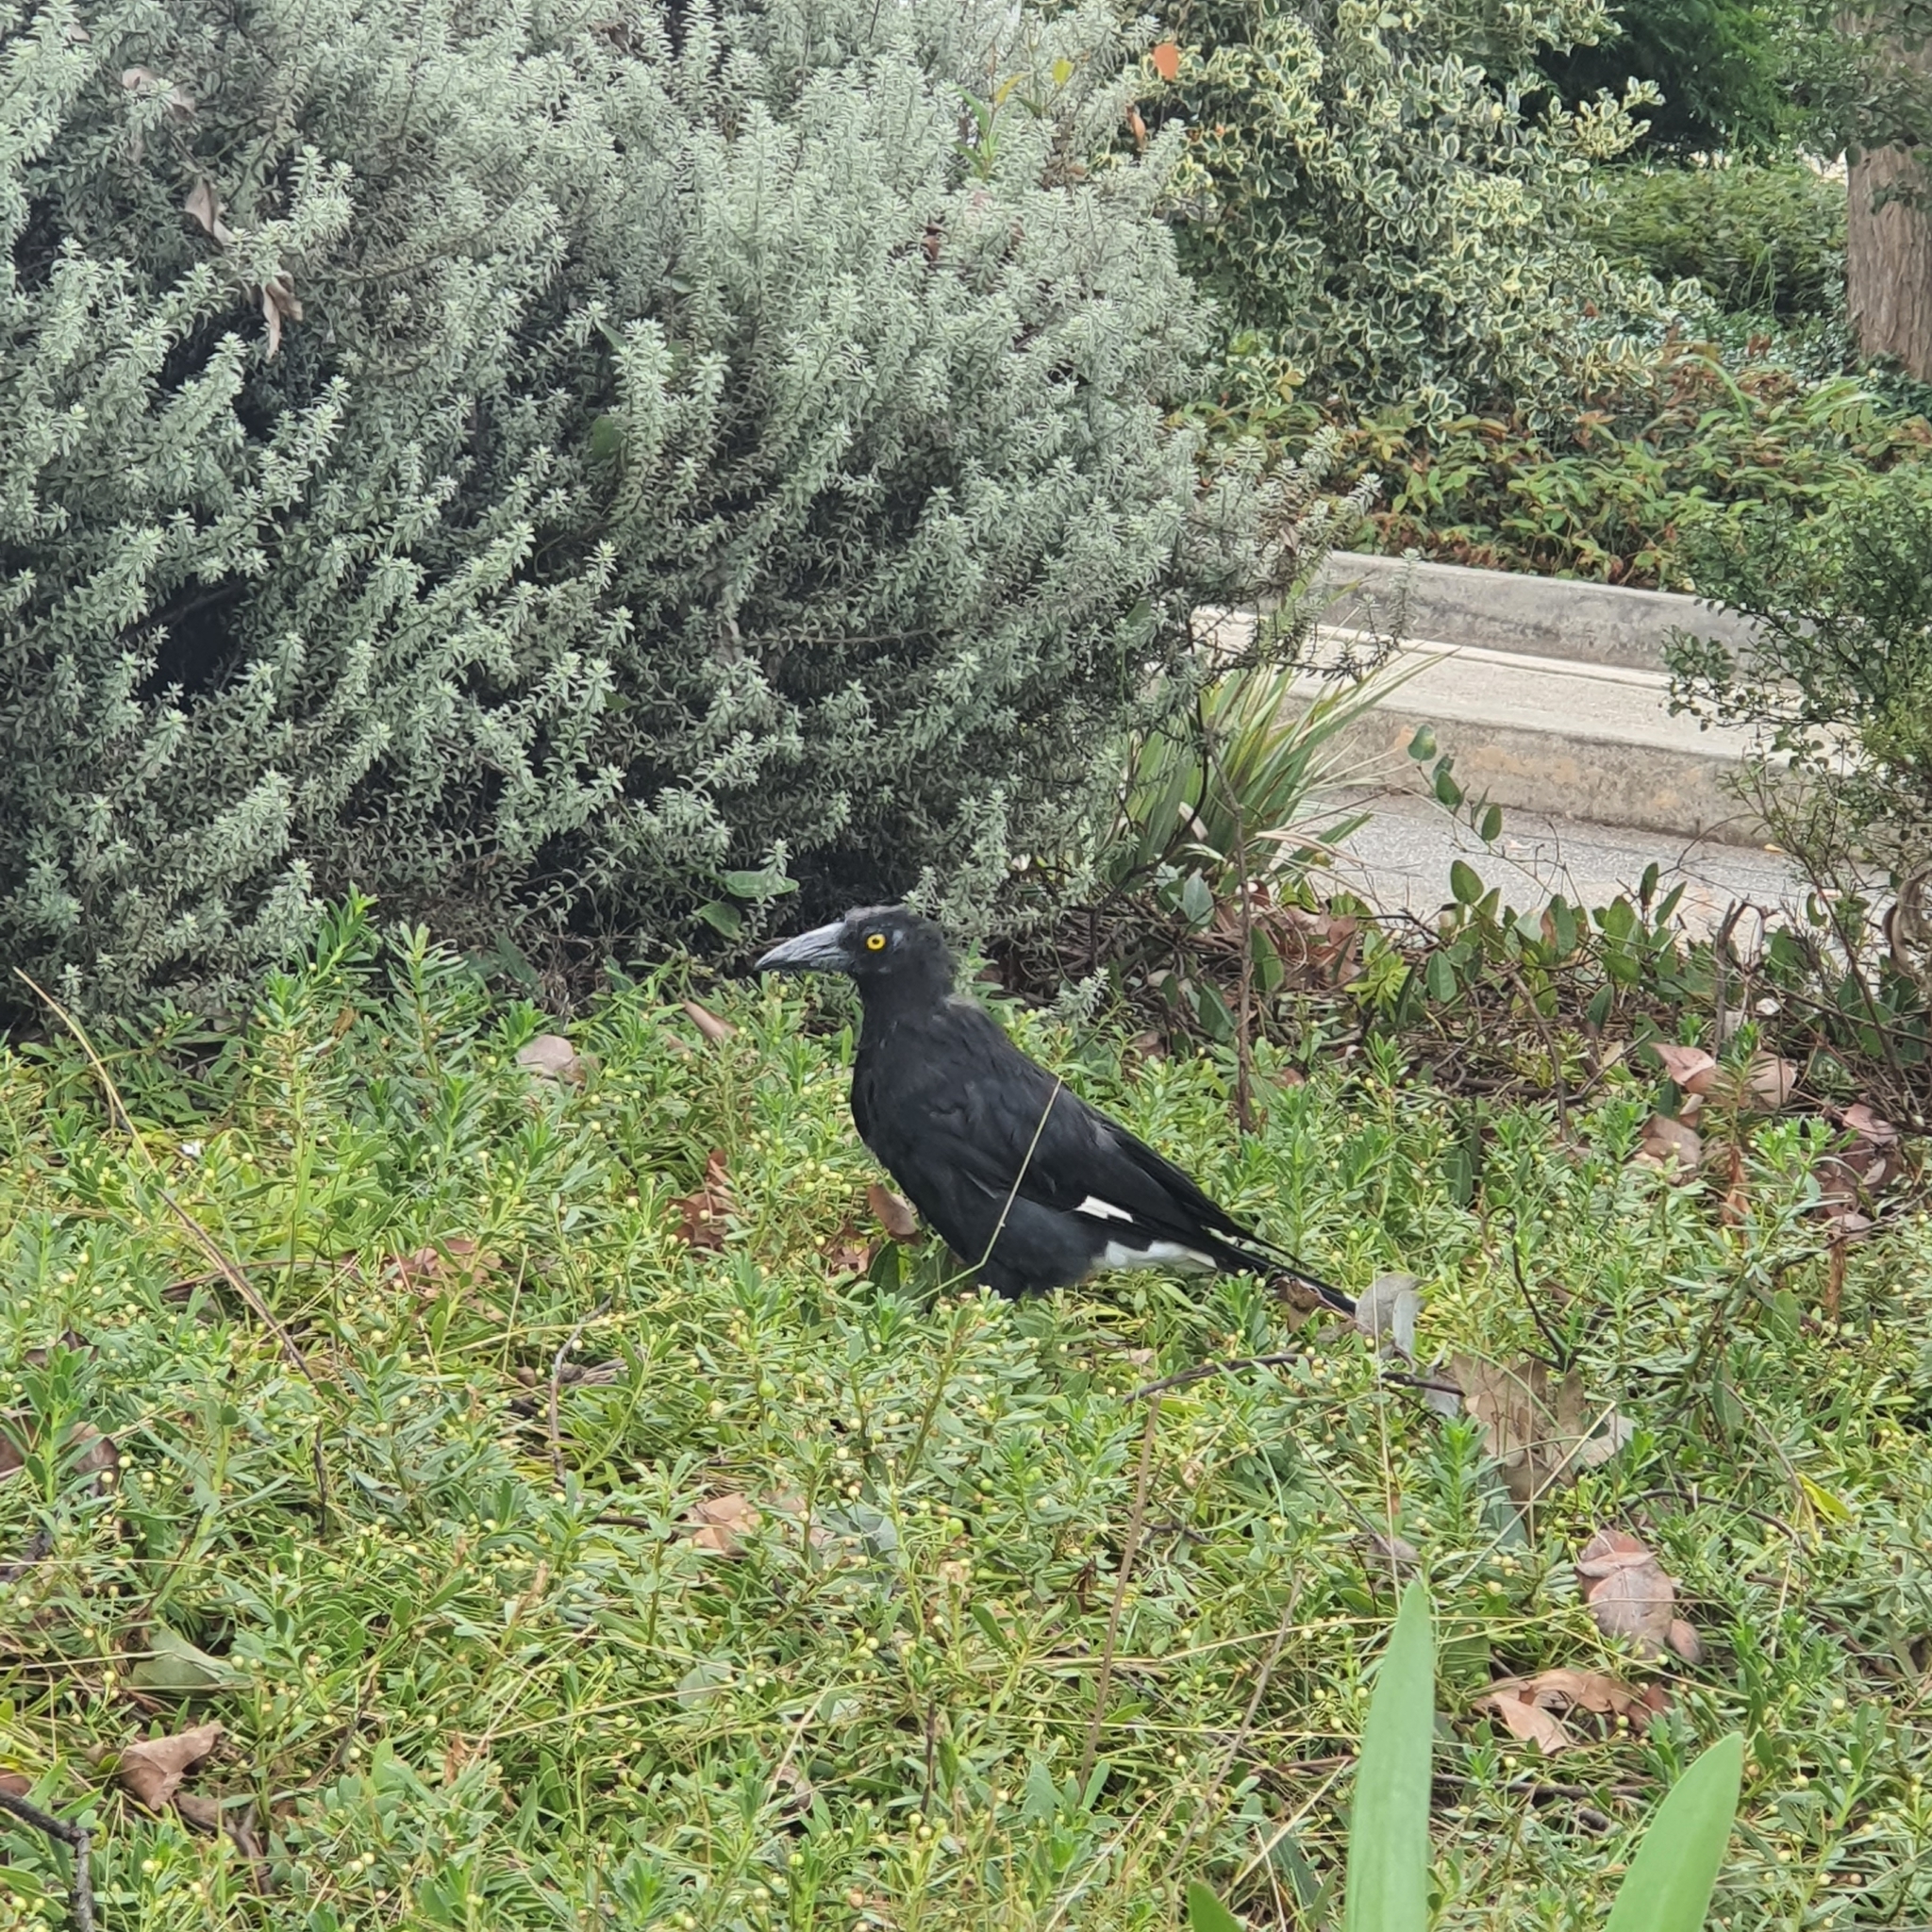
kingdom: Animalia
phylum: Chordata
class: Aves
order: Passeriformes
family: Cracticidae
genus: Strepera
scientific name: Strepera graculina
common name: Pied currawong
